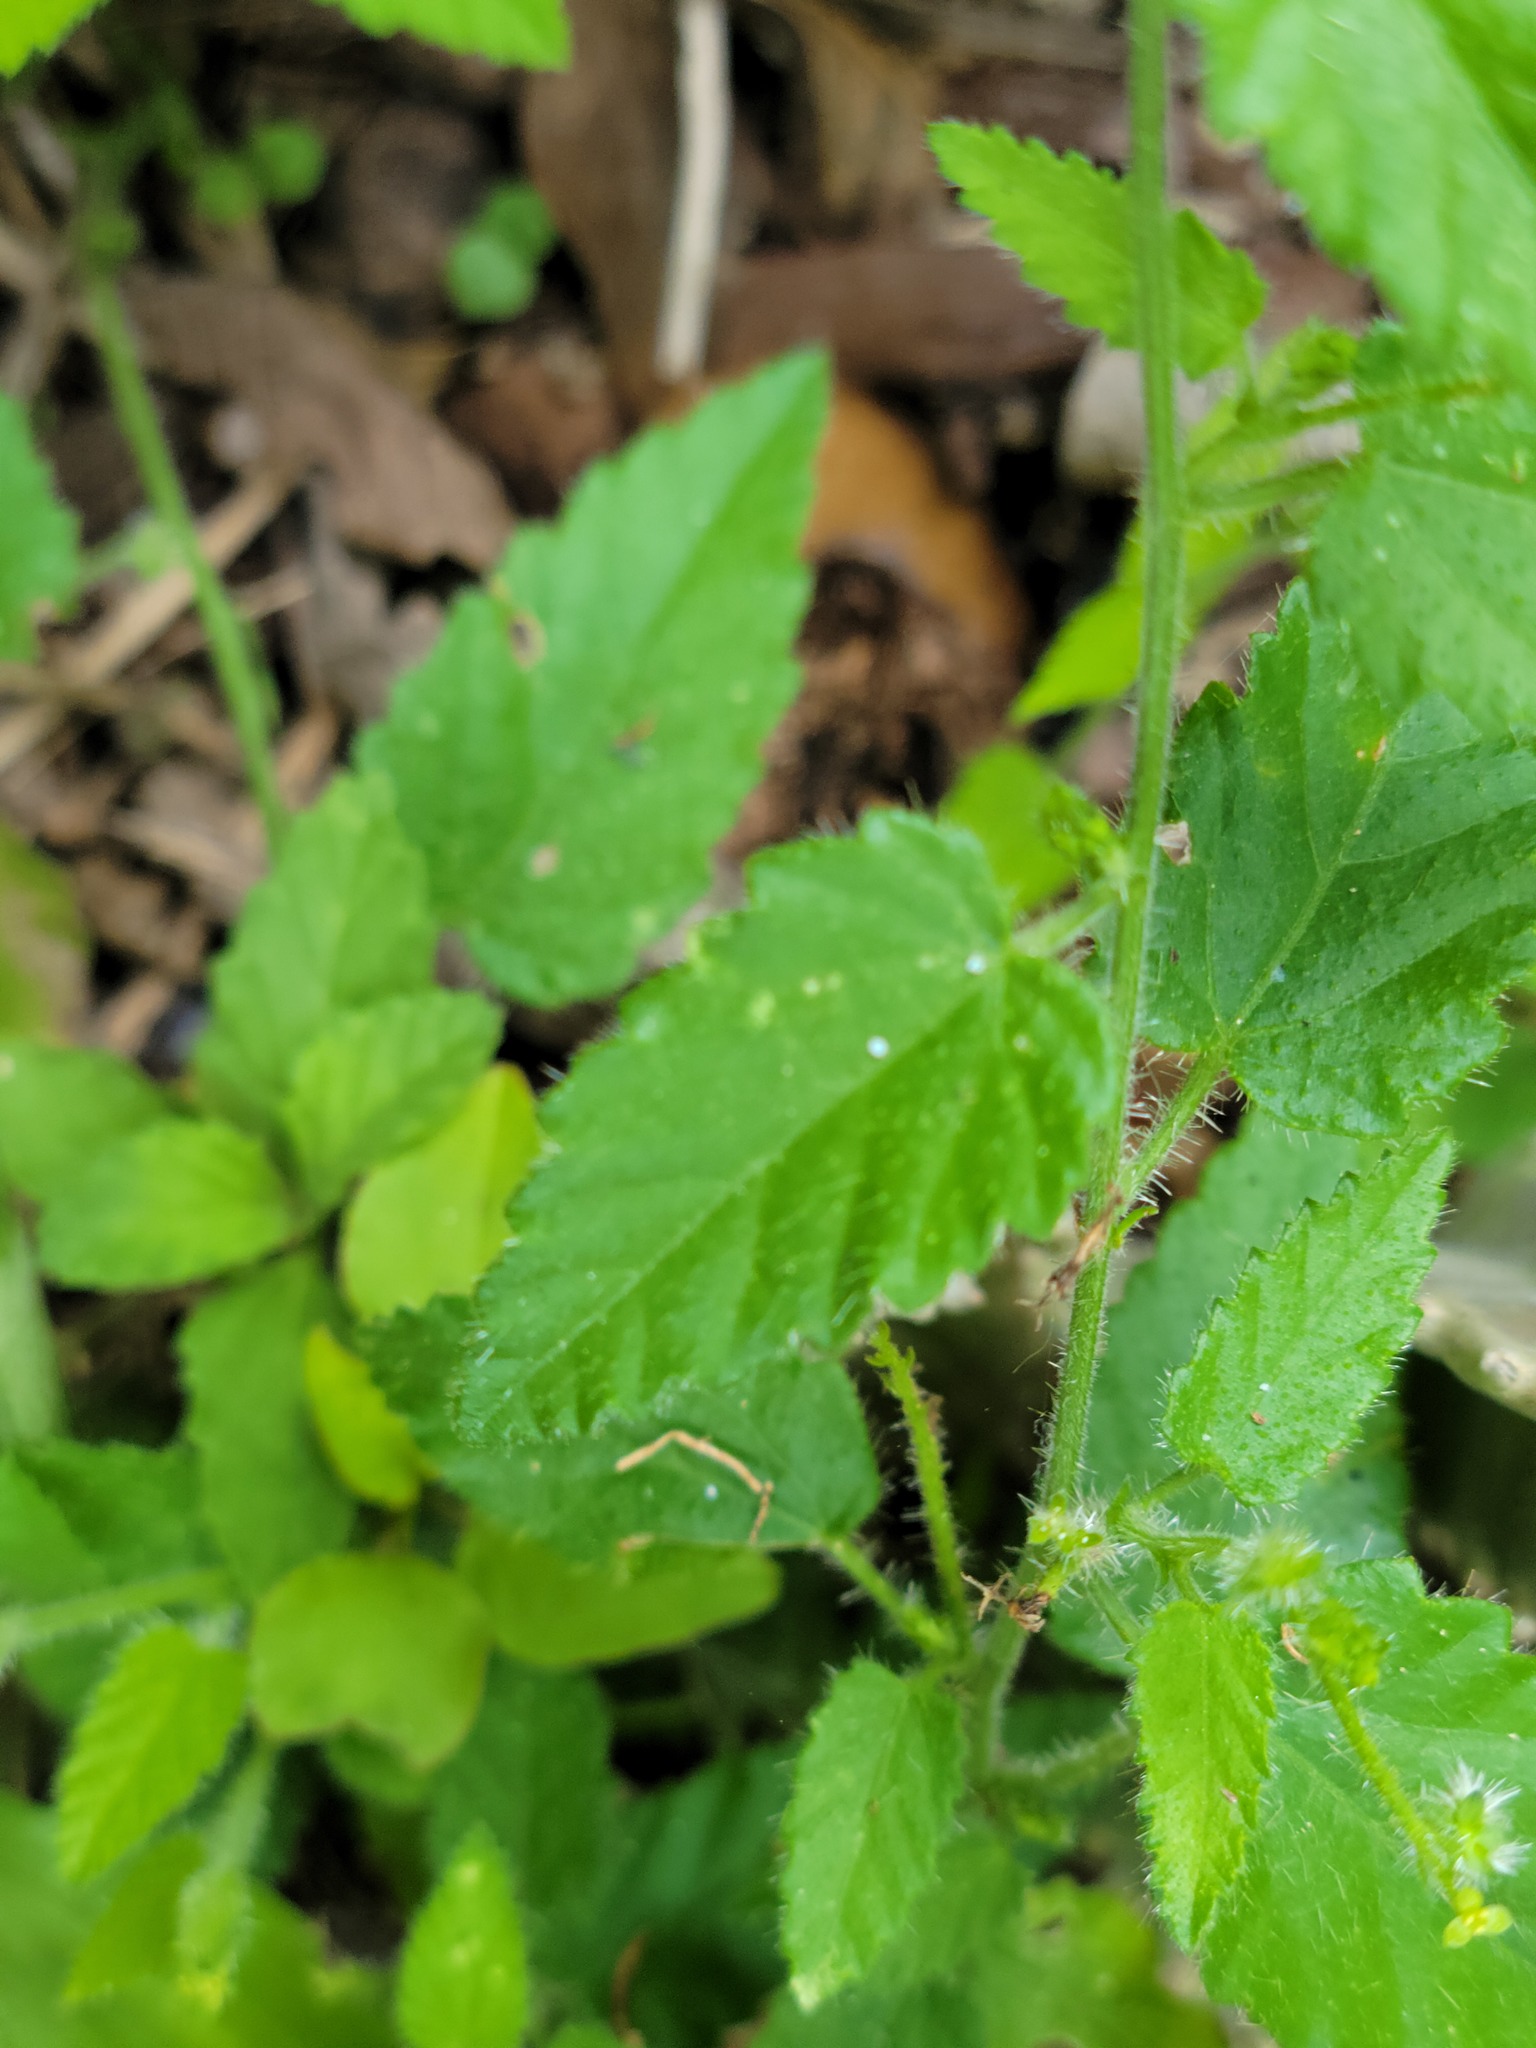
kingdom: Plantae
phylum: Tracheophyta
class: Magnoliopsida
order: Malpighiales
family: Euphorbiaceae
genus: Tragia
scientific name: Tragia glanduligera
